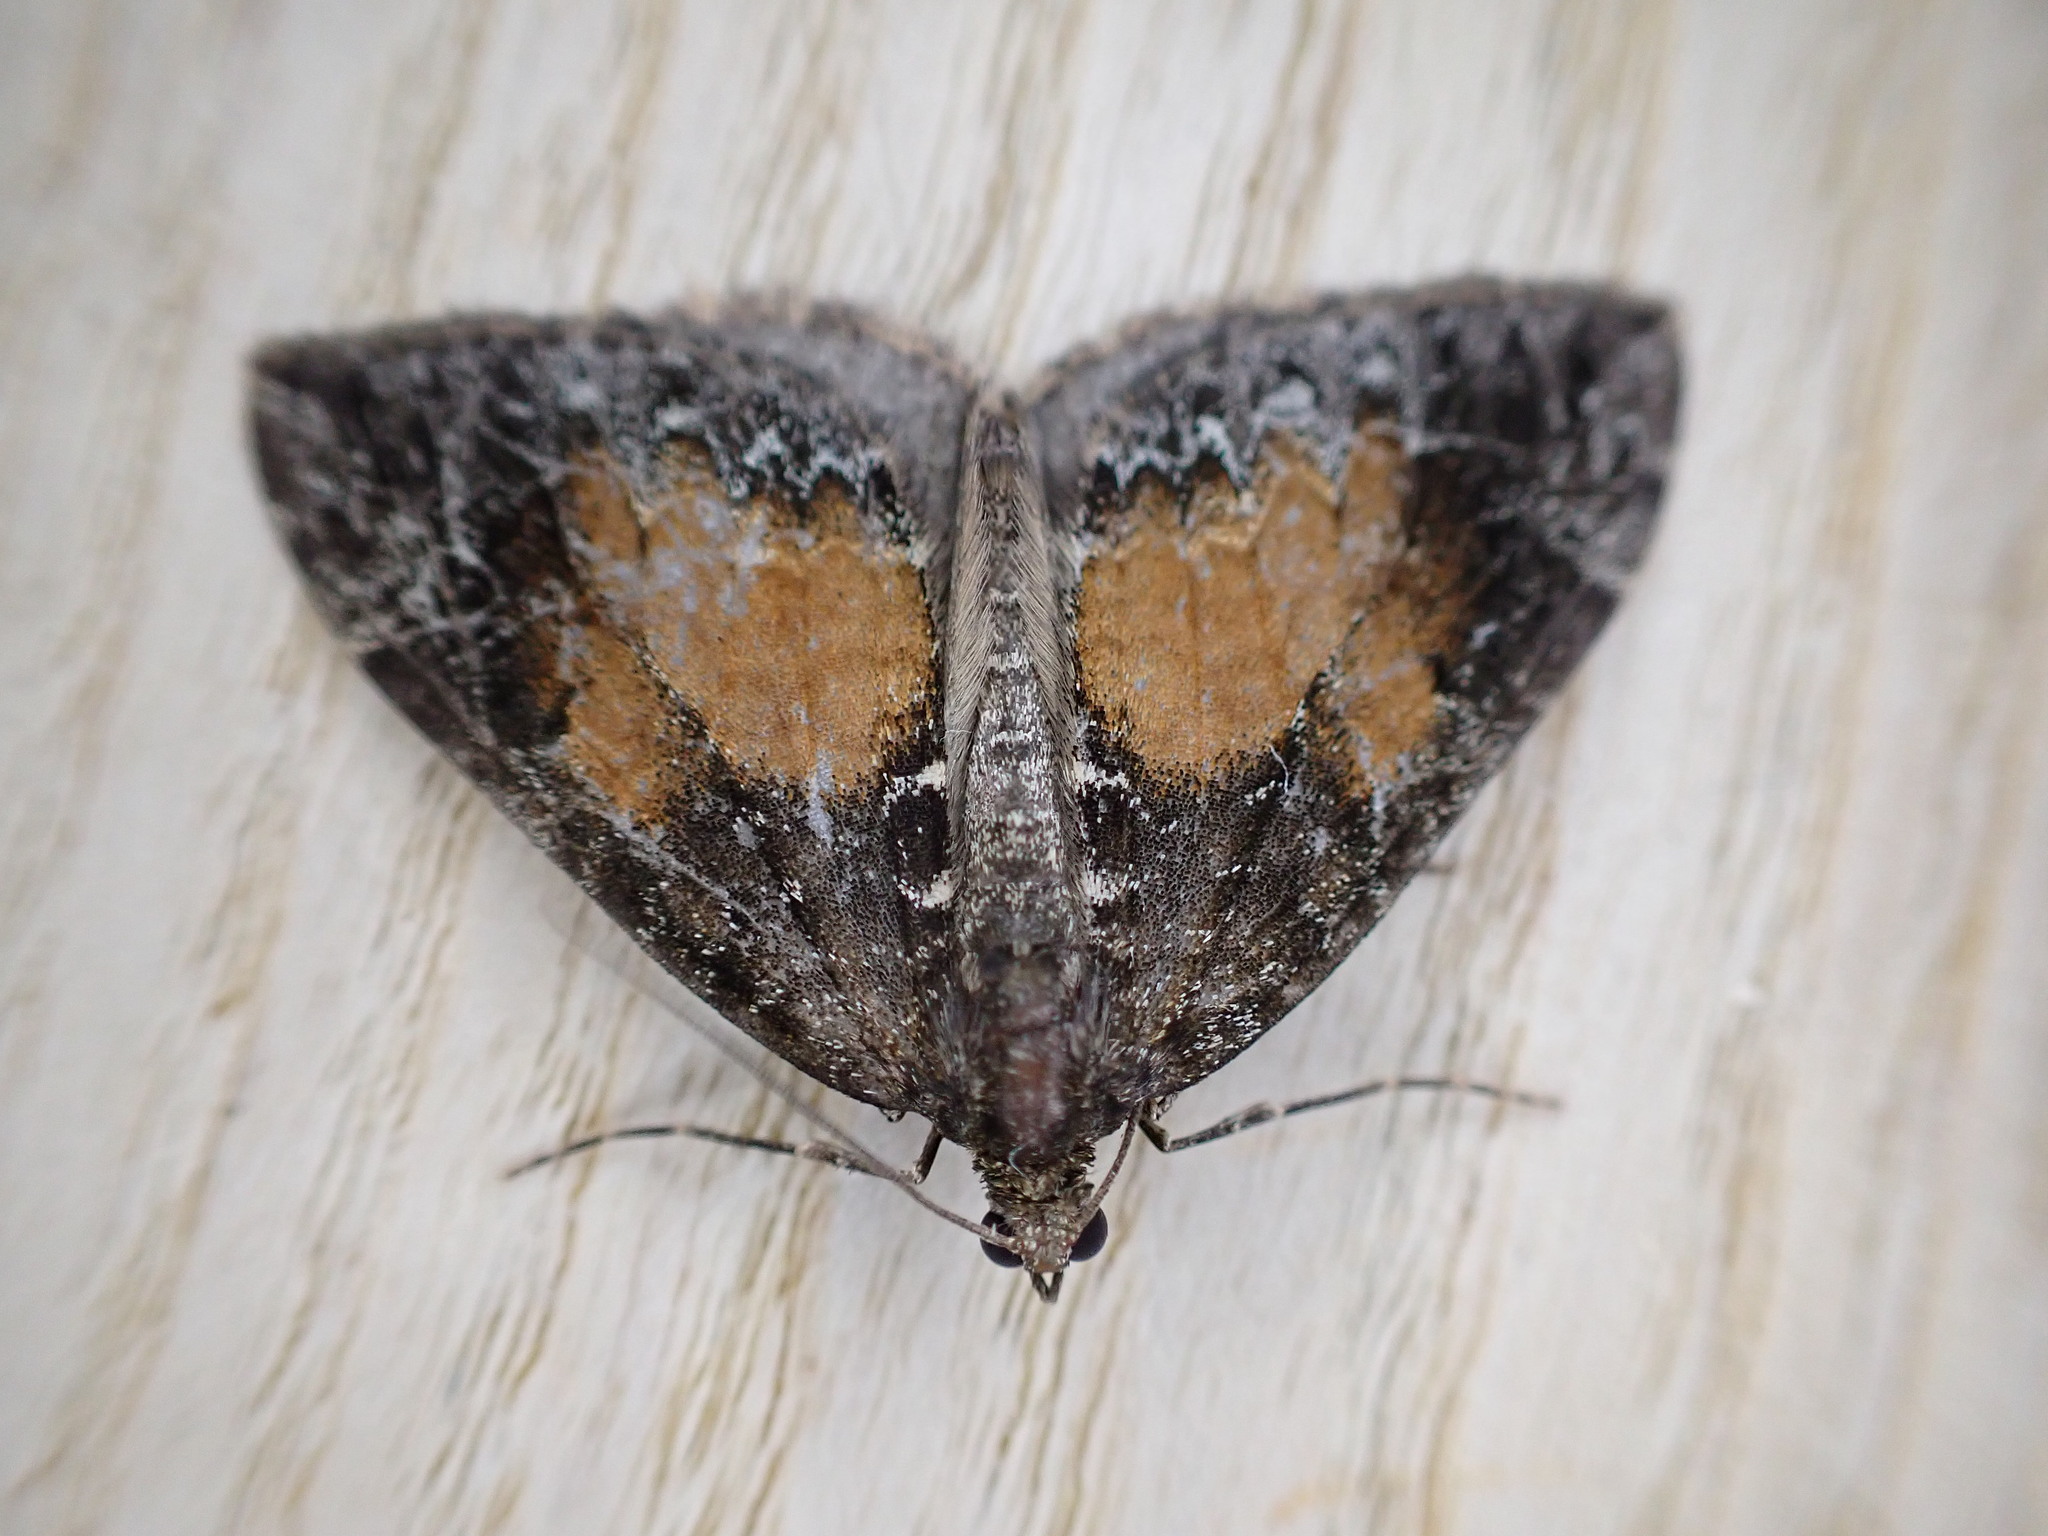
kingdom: Animalia
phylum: Arthropoda
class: Insecta
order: Lepidoptera
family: Geometridae
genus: Dysstroma
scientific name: Dysstroma truncata
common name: Common marbled carpet
